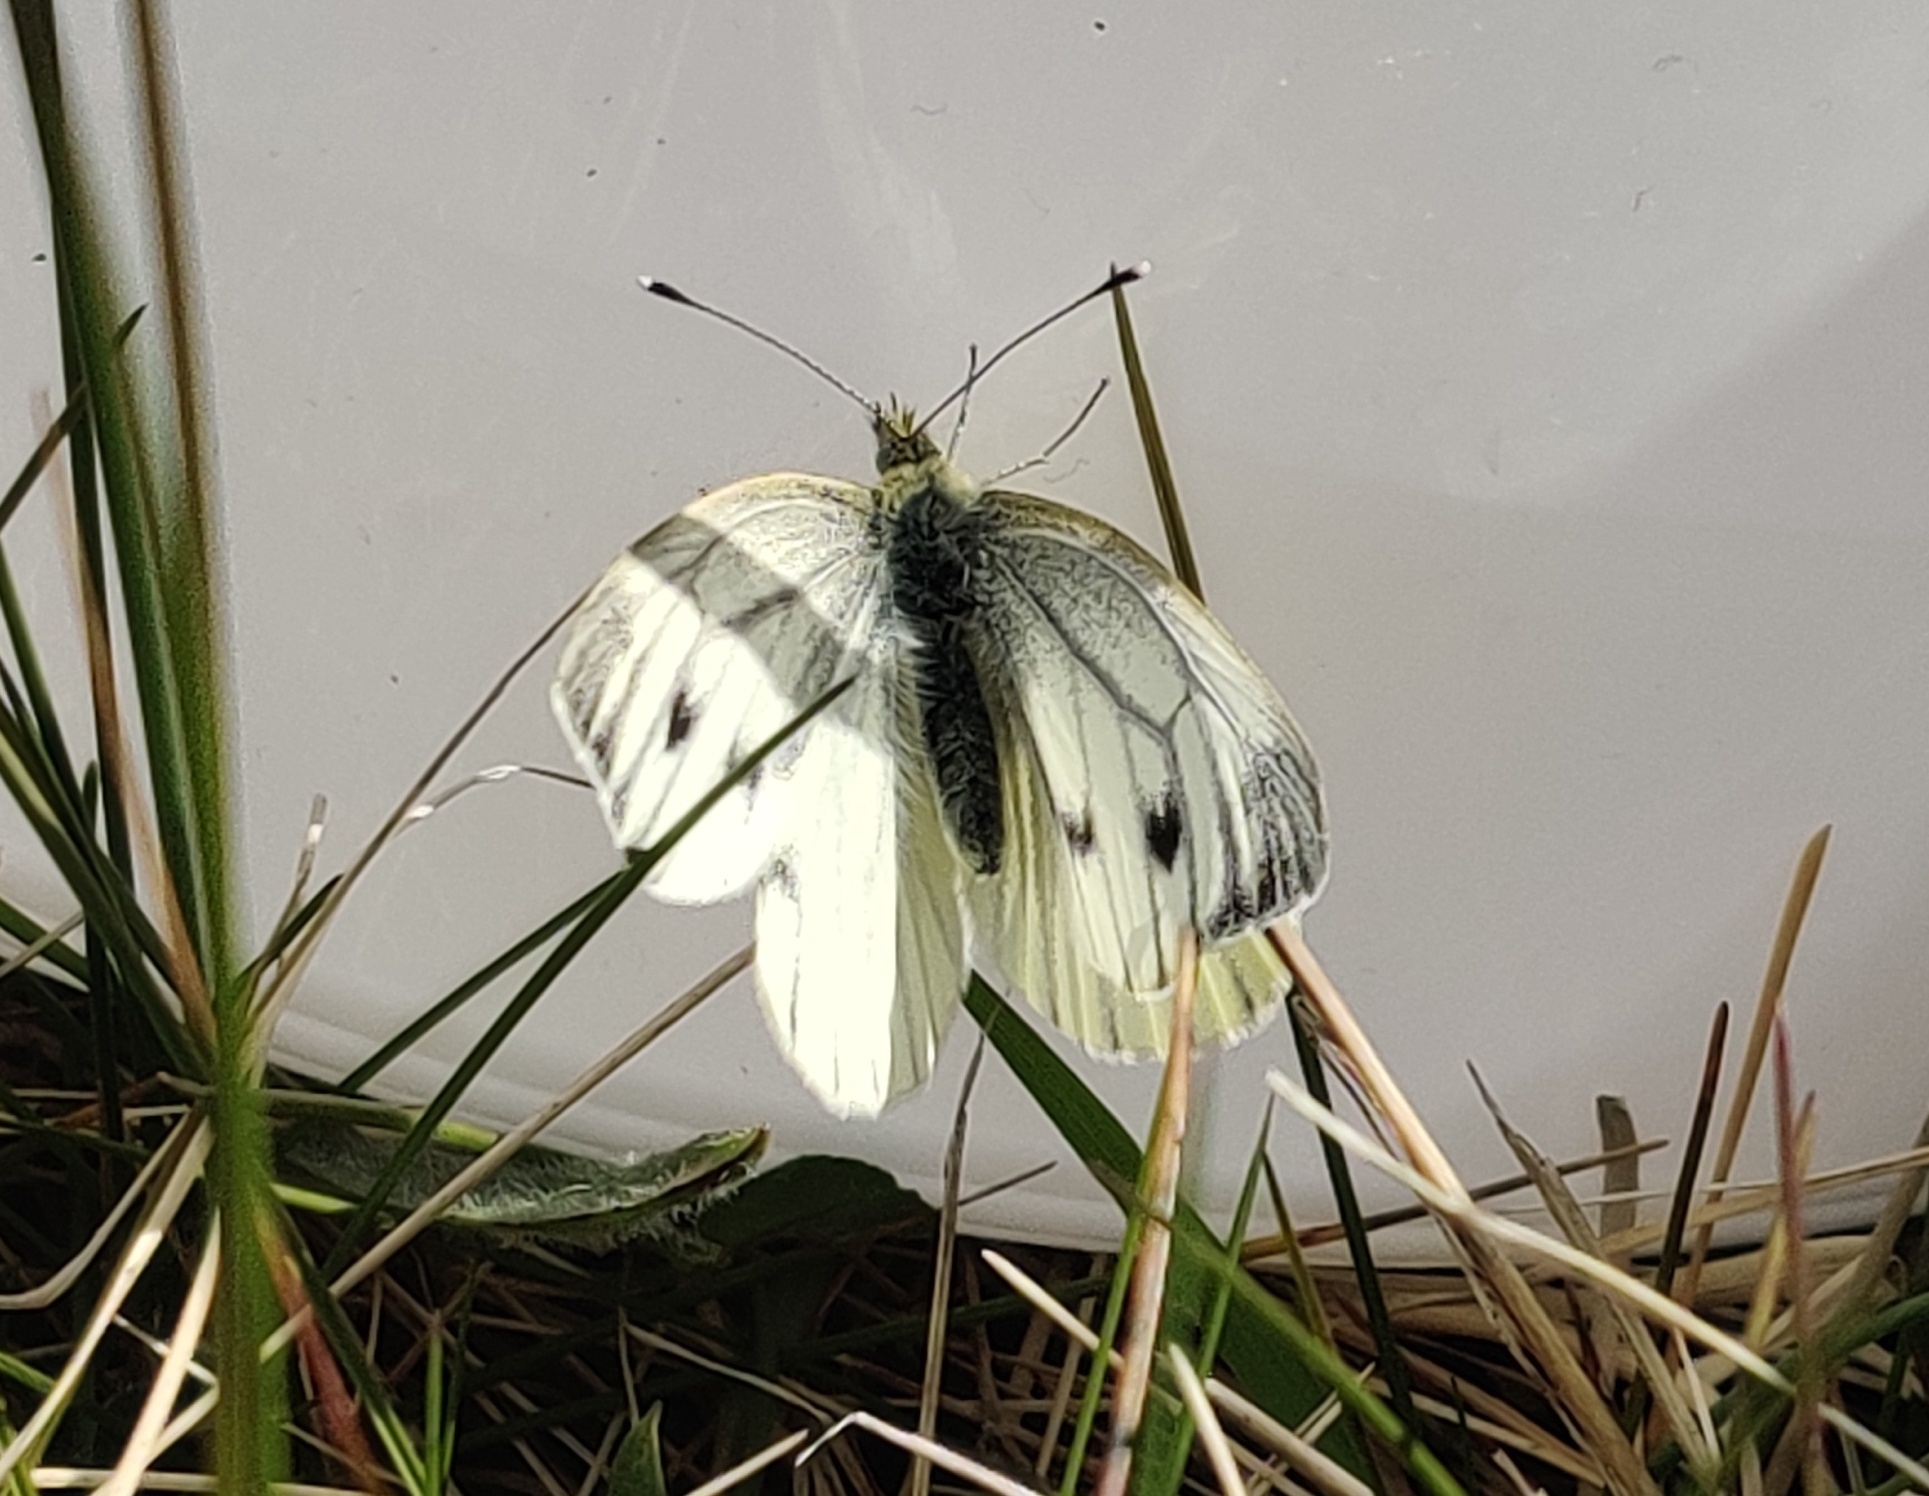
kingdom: Animalia
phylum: Arthropoda
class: Insecta
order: Lepidoptera
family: Pieridae
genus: Pieris
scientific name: Pieris napi
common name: Green-veined white
